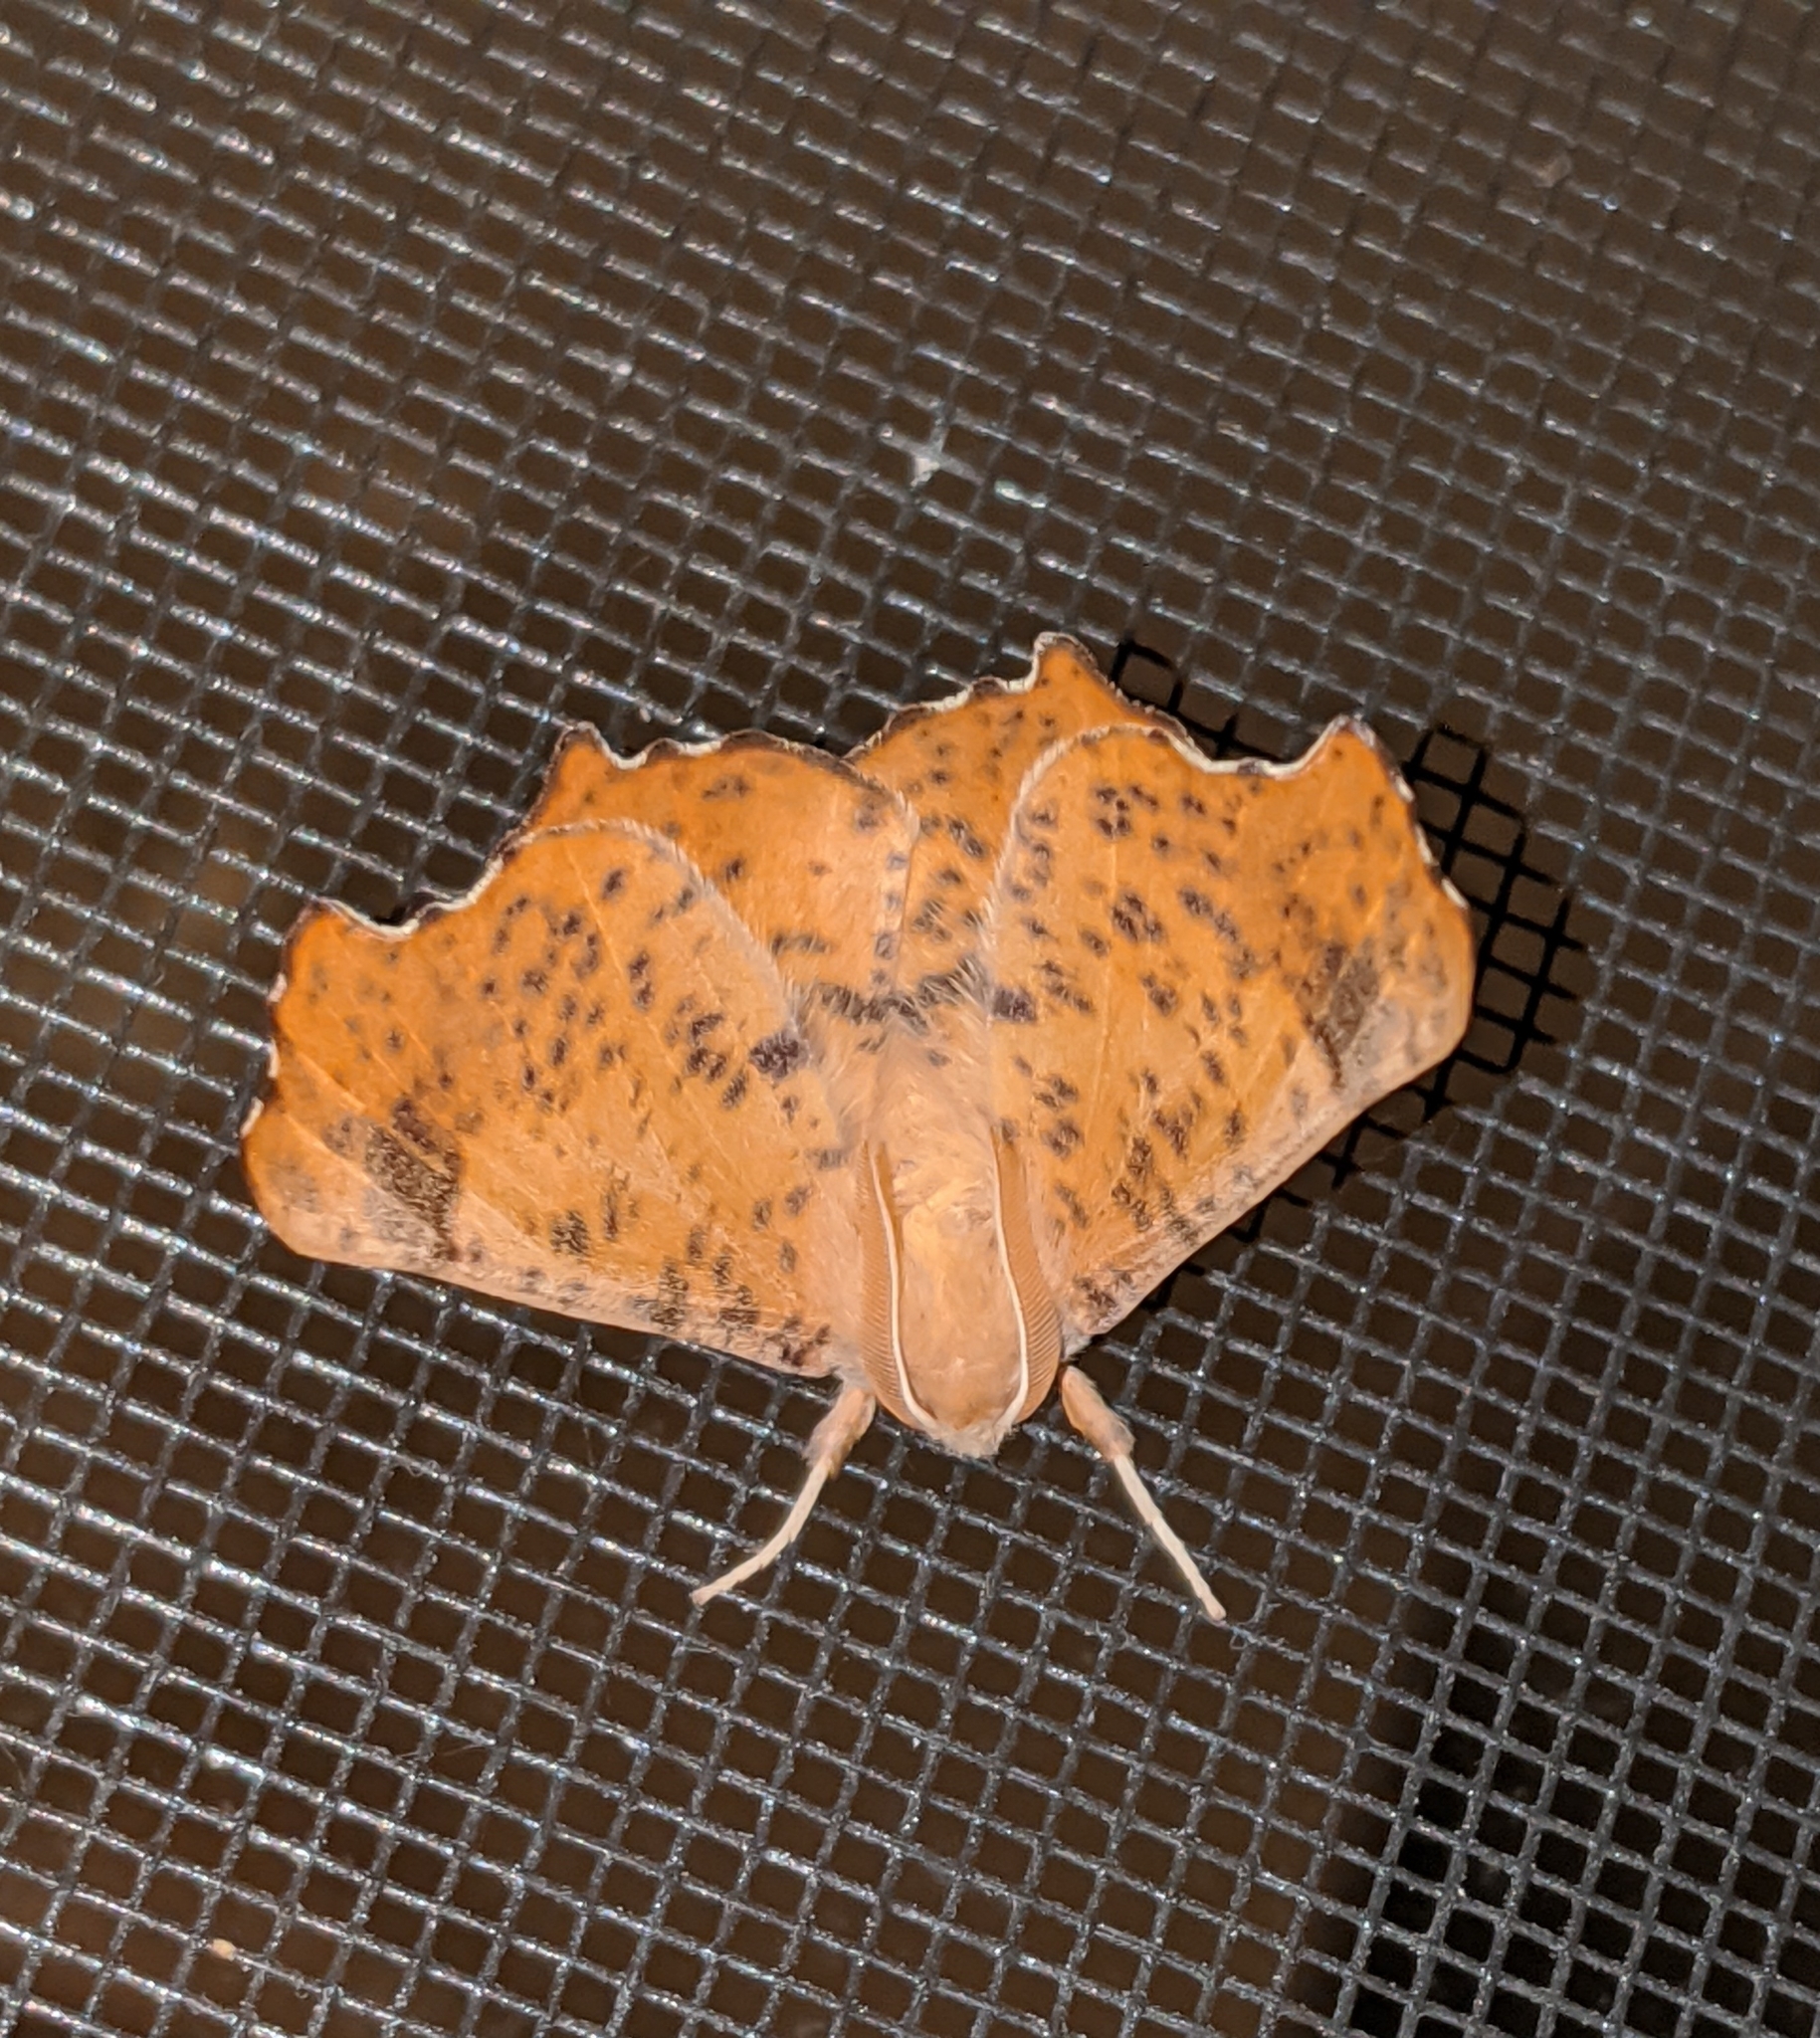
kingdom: Animalia
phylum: Arthropoda
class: Insecta
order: Lepidoptera
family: Geometridae
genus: Ennomos
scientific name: Ennomos magnaria
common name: Maple spanworm
